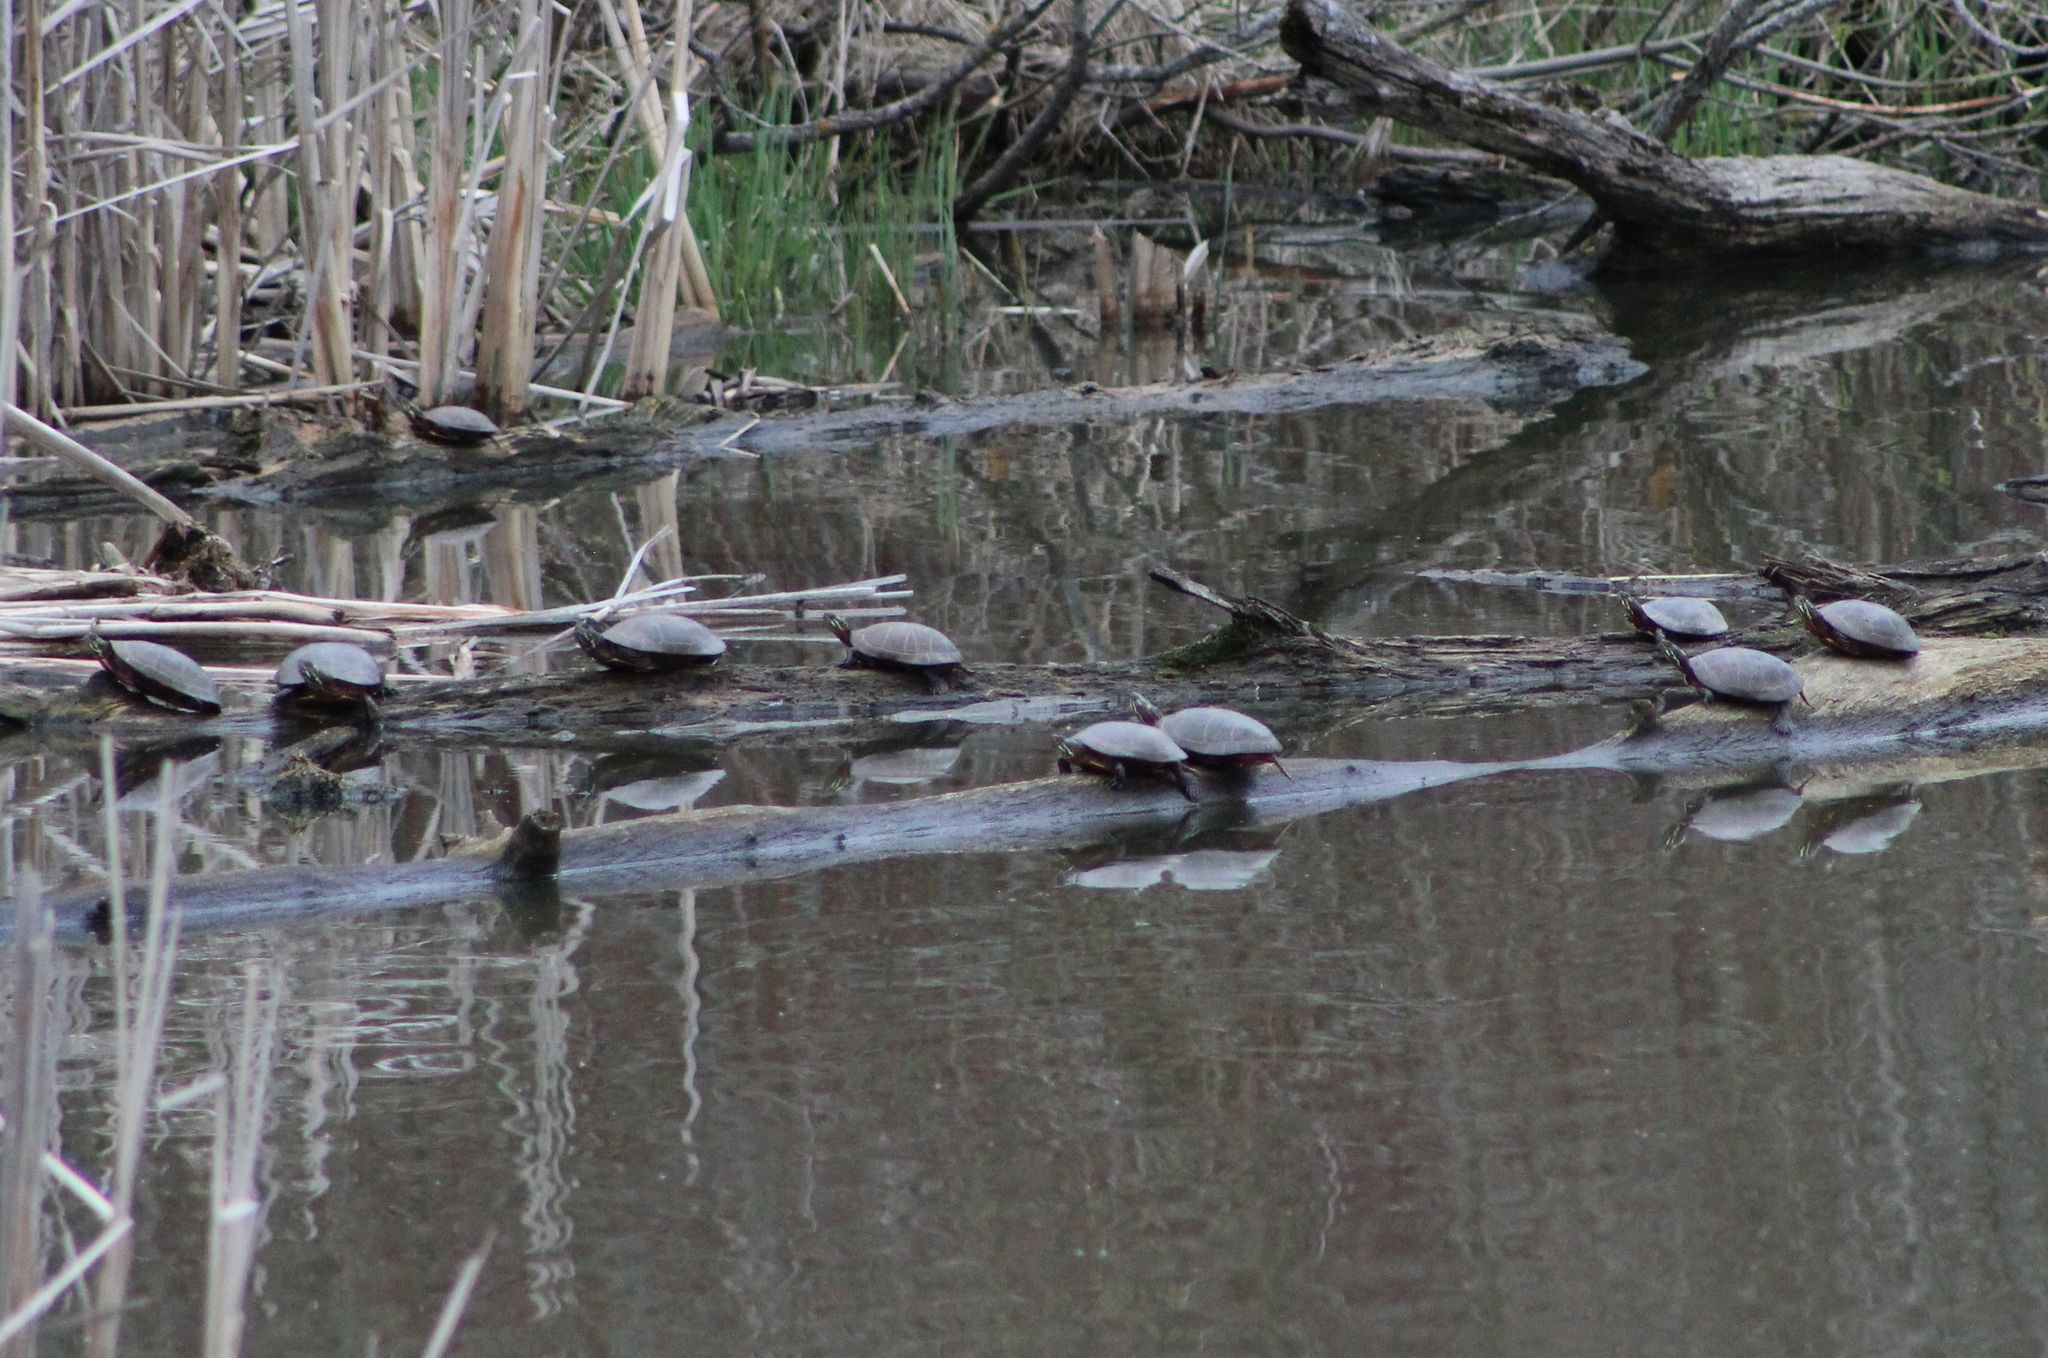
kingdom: Animalia
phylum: Chordata
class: Testudines
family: Emydidae
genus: Chrysemys
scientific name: Chrysemys picta
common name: Painted turtle
